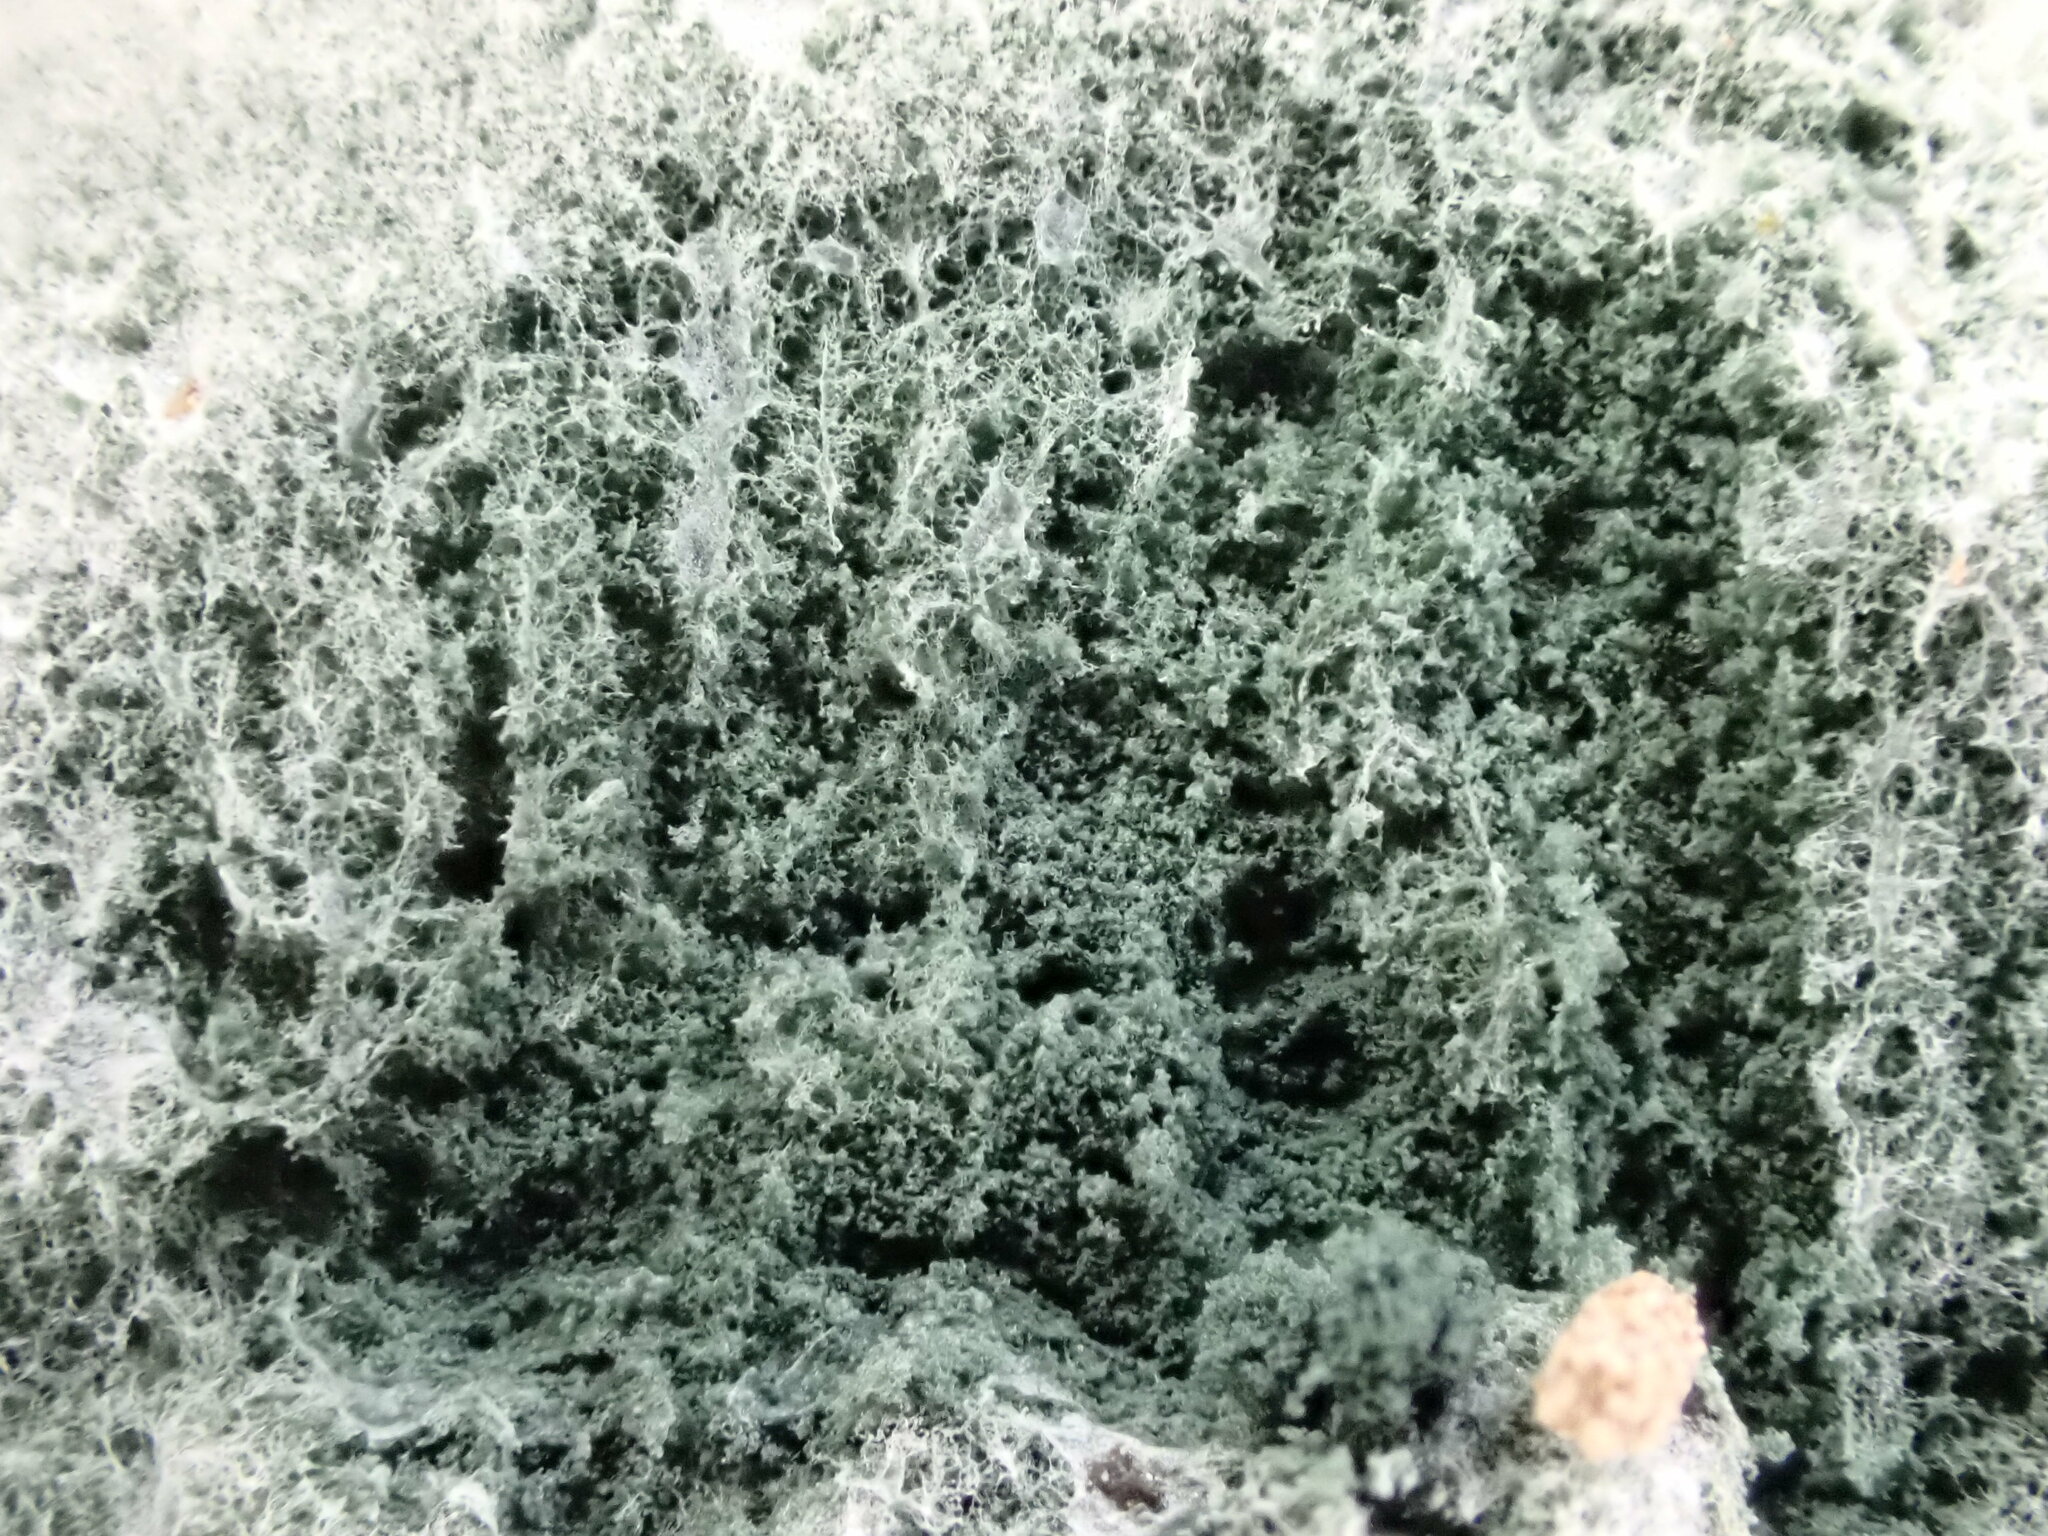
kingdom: Fungi
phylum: Ascomycota
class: Sordariomycetes
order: Hypocreales
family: Hypocreaceae
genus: Trichoderma
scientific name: Trichoderma viride
